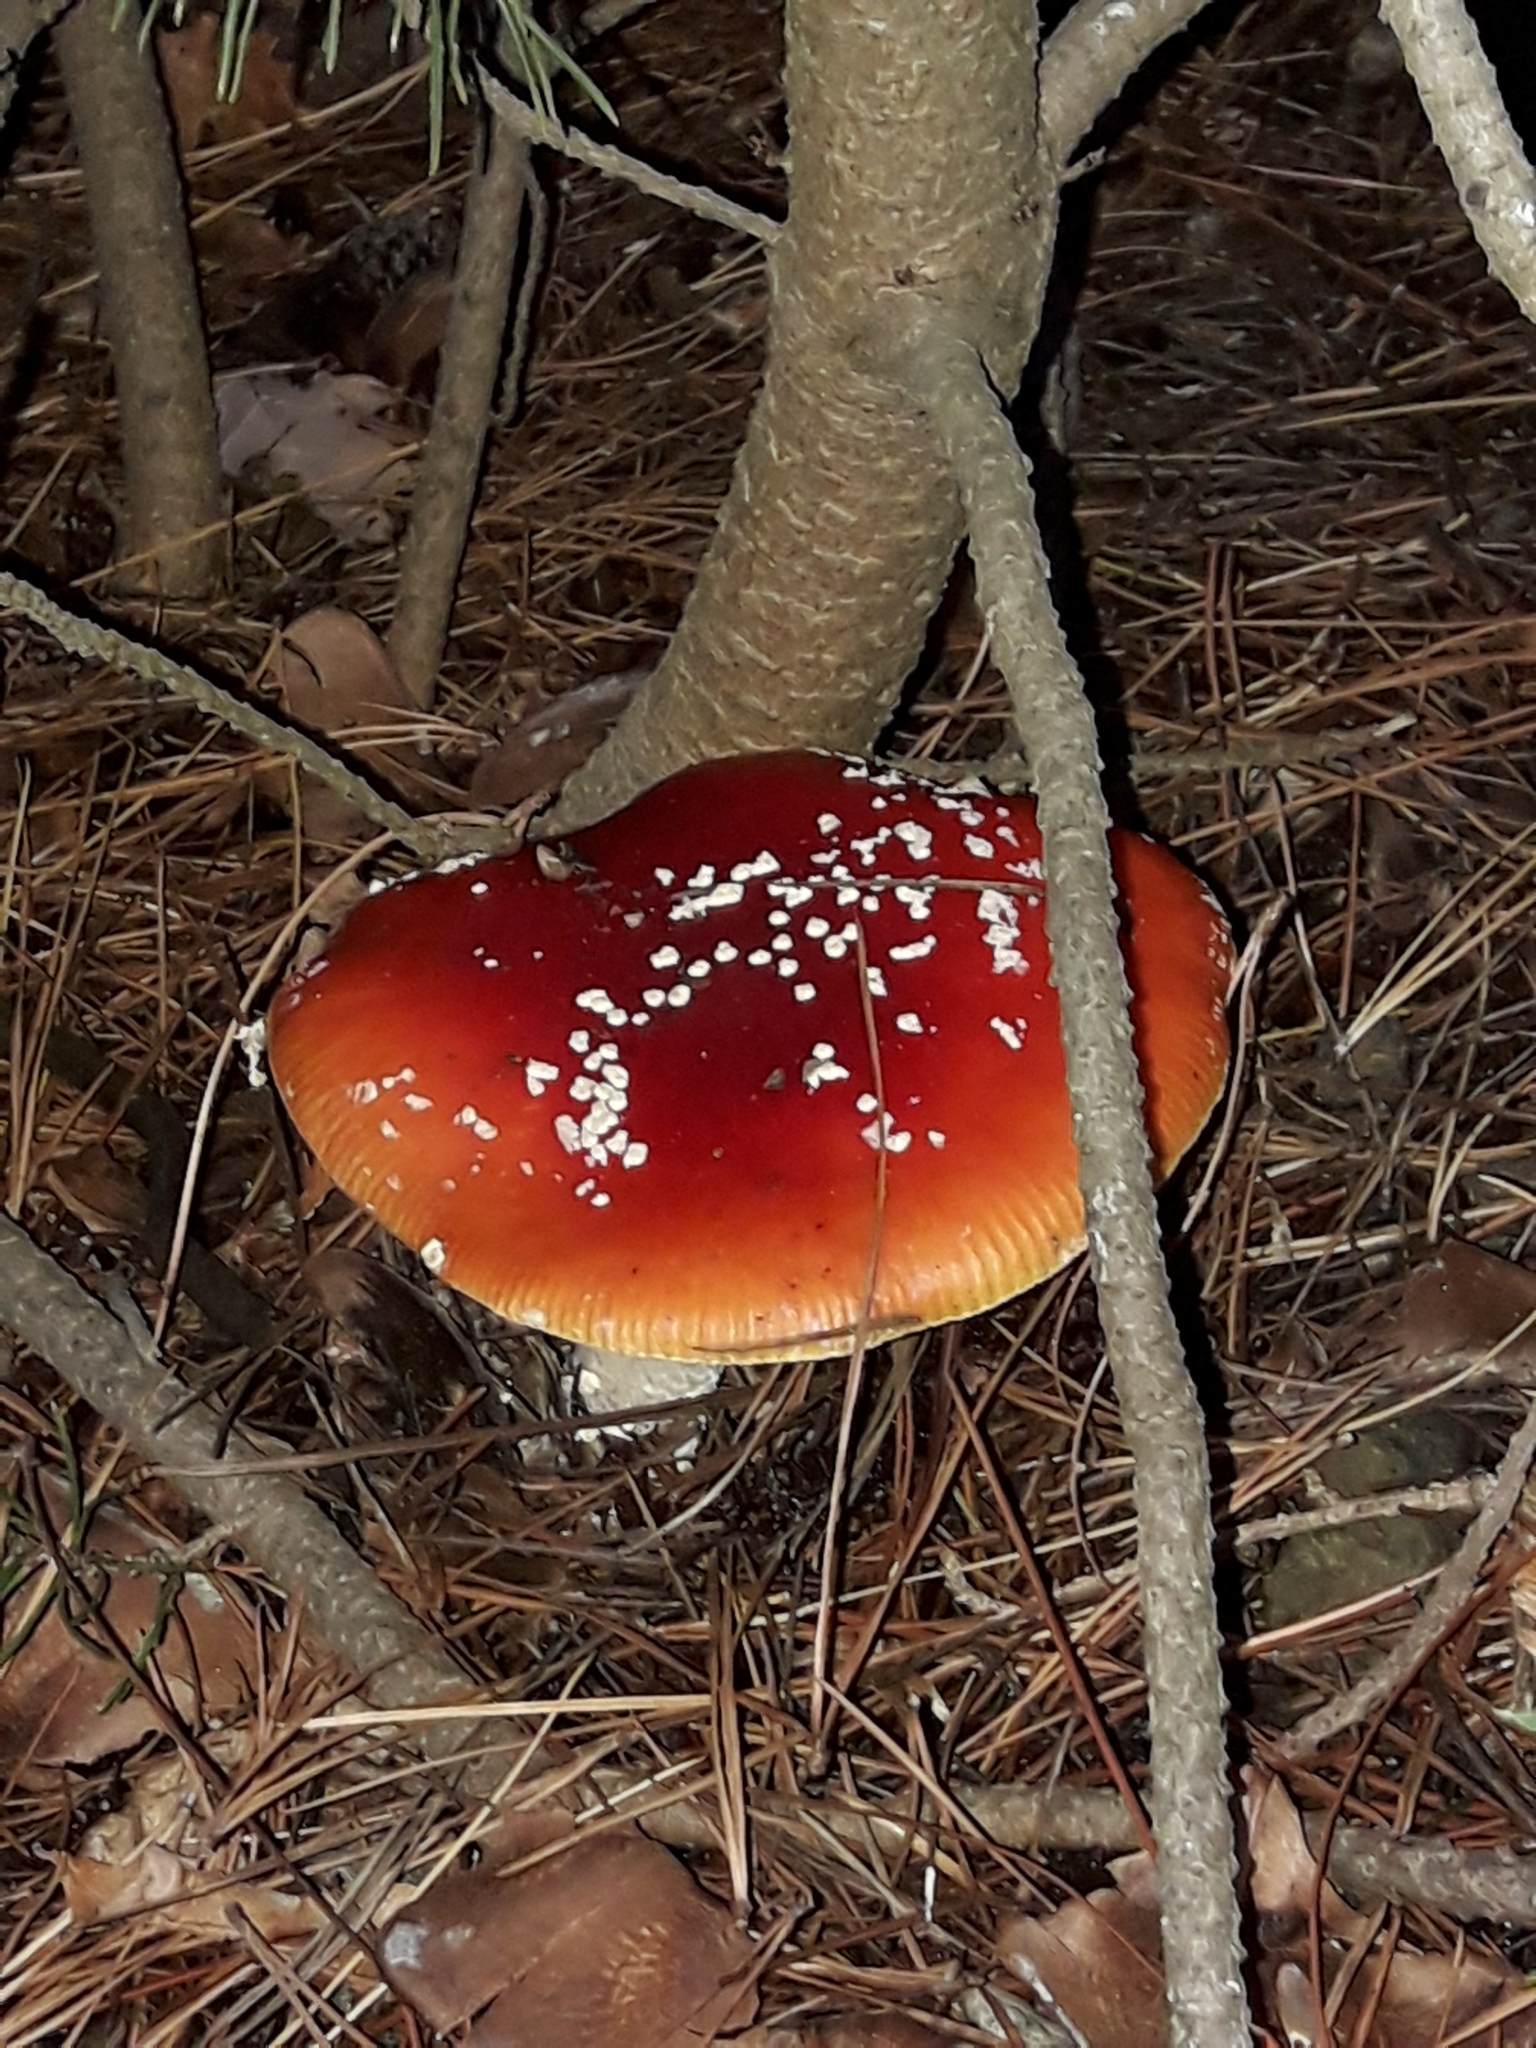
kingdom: Fungi
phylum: Basidiomycota
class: Agaricomycetes
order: Agaricales
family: Amanitaceae
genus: Amanita
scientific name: Amanita muscaria
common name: Fly agaric
